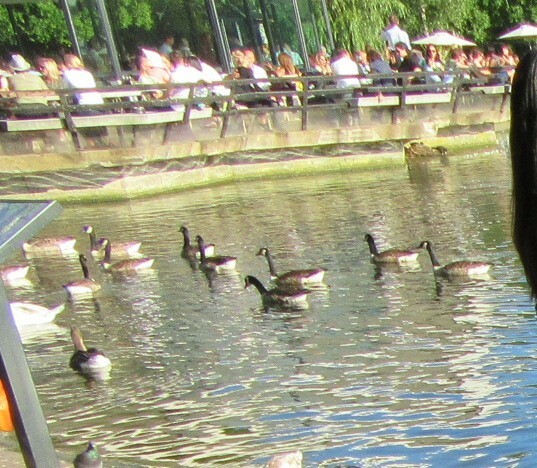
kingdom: Animalia
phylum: Chordata
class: Aves
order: Anseriformes
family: Anatidae
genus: Branta
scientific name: Branta canadensis
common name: Canada goose
